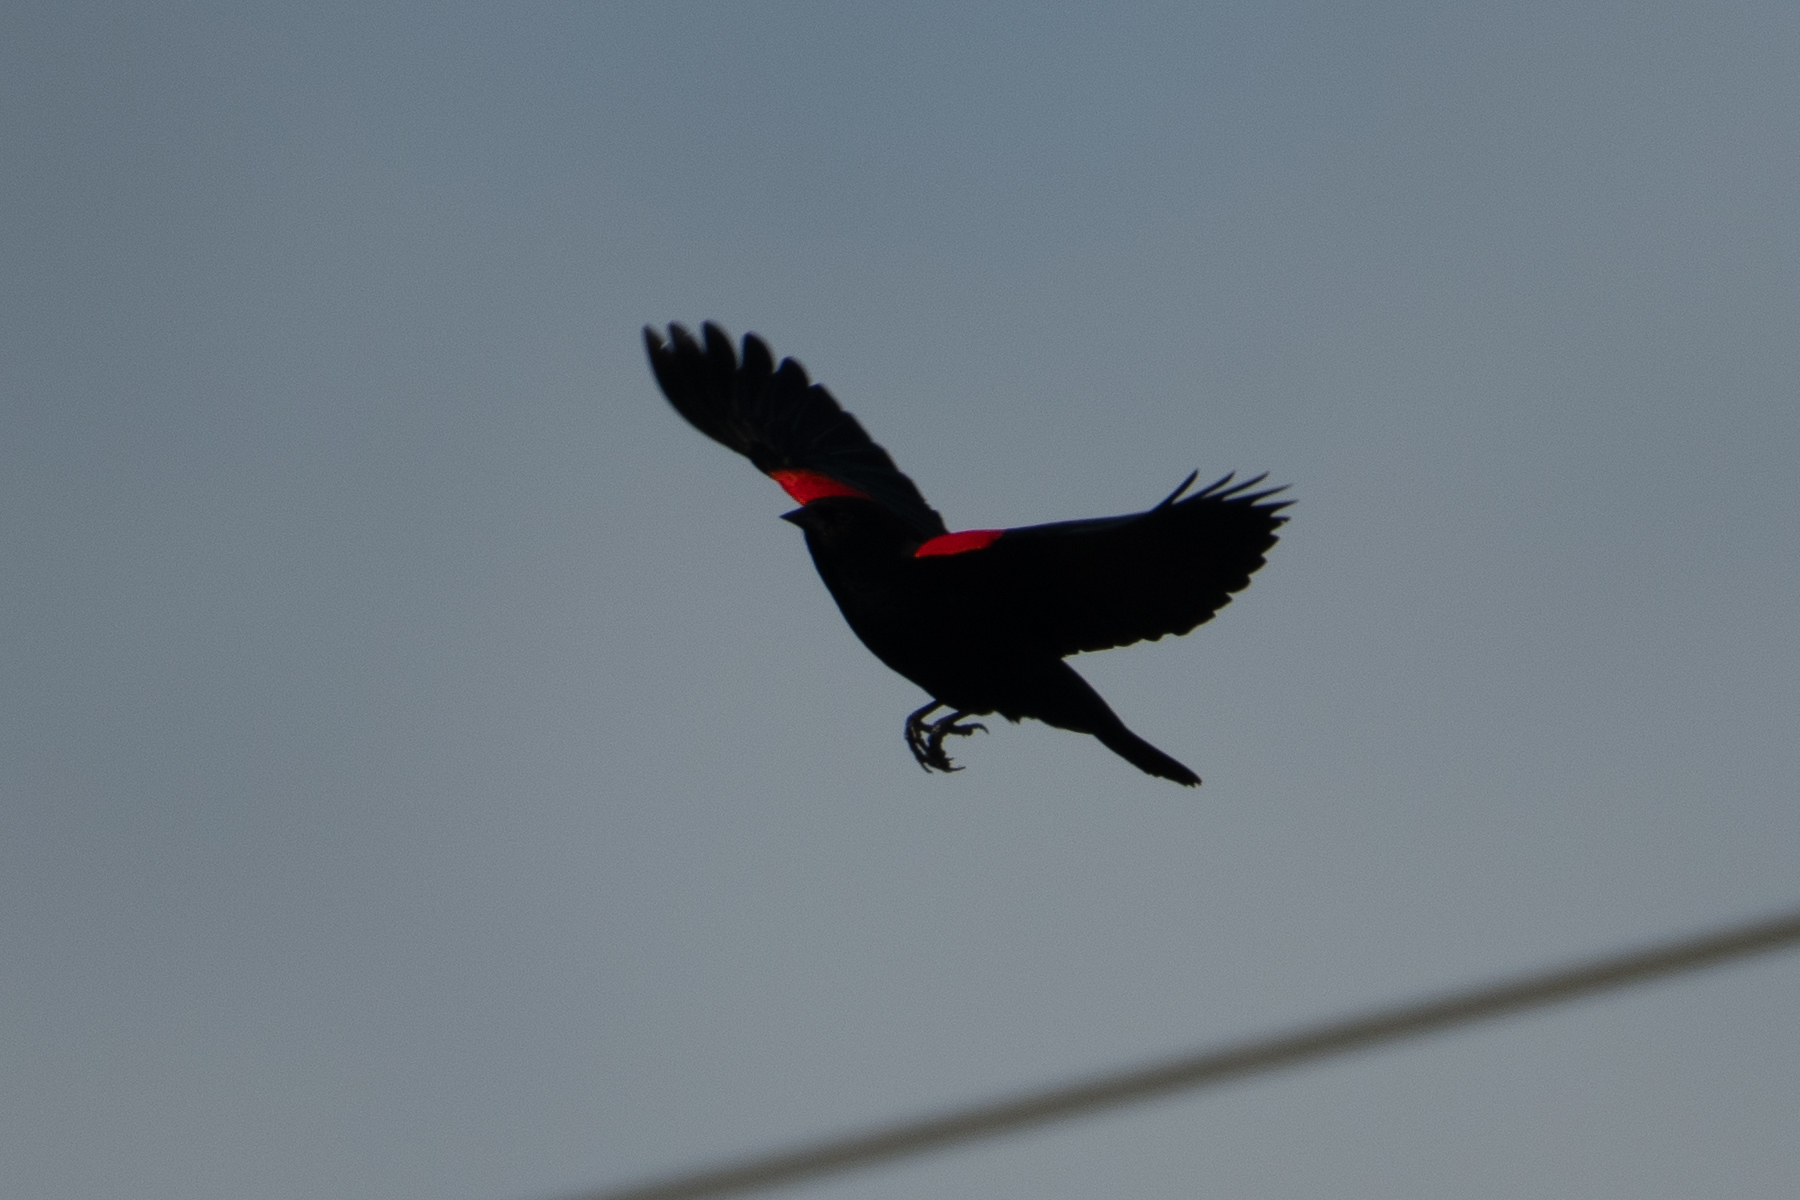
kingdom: Animalia
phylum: Chordata
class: Aves
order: Passeriformes
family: Icteridae
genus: Agelaius
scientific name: Agelaius phoeniceus
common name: Red-winged blackbird
